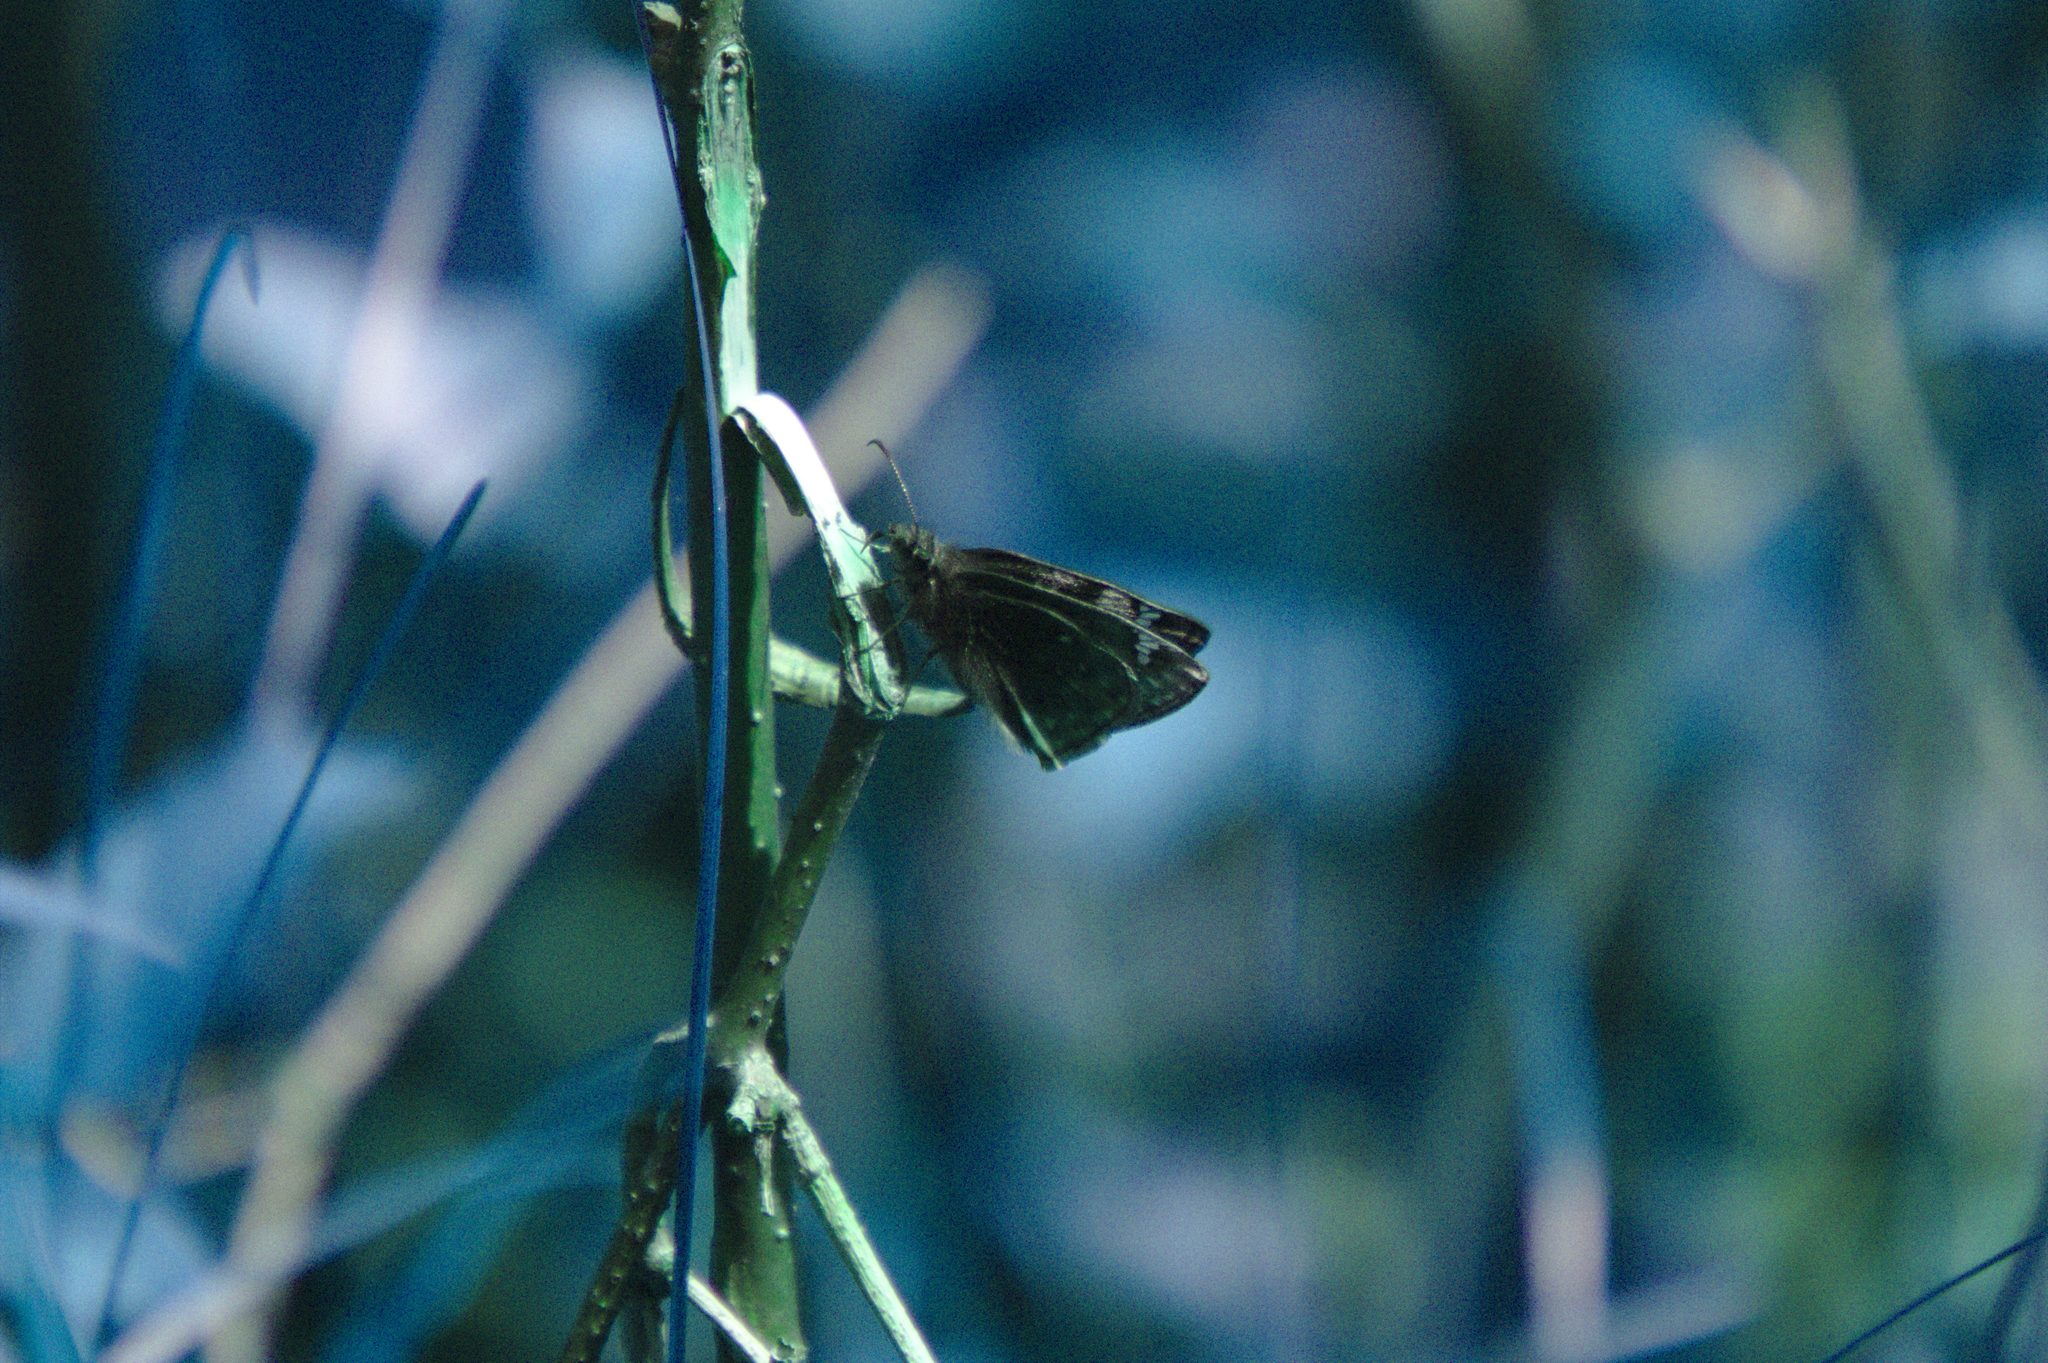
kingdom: Animalia
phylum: Arthropoda
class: Insecta
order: Lepidoptera
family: Hesperiidae
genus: Erynnis
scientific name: Erynnis juvenalis
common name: Juvenal's duskywing
